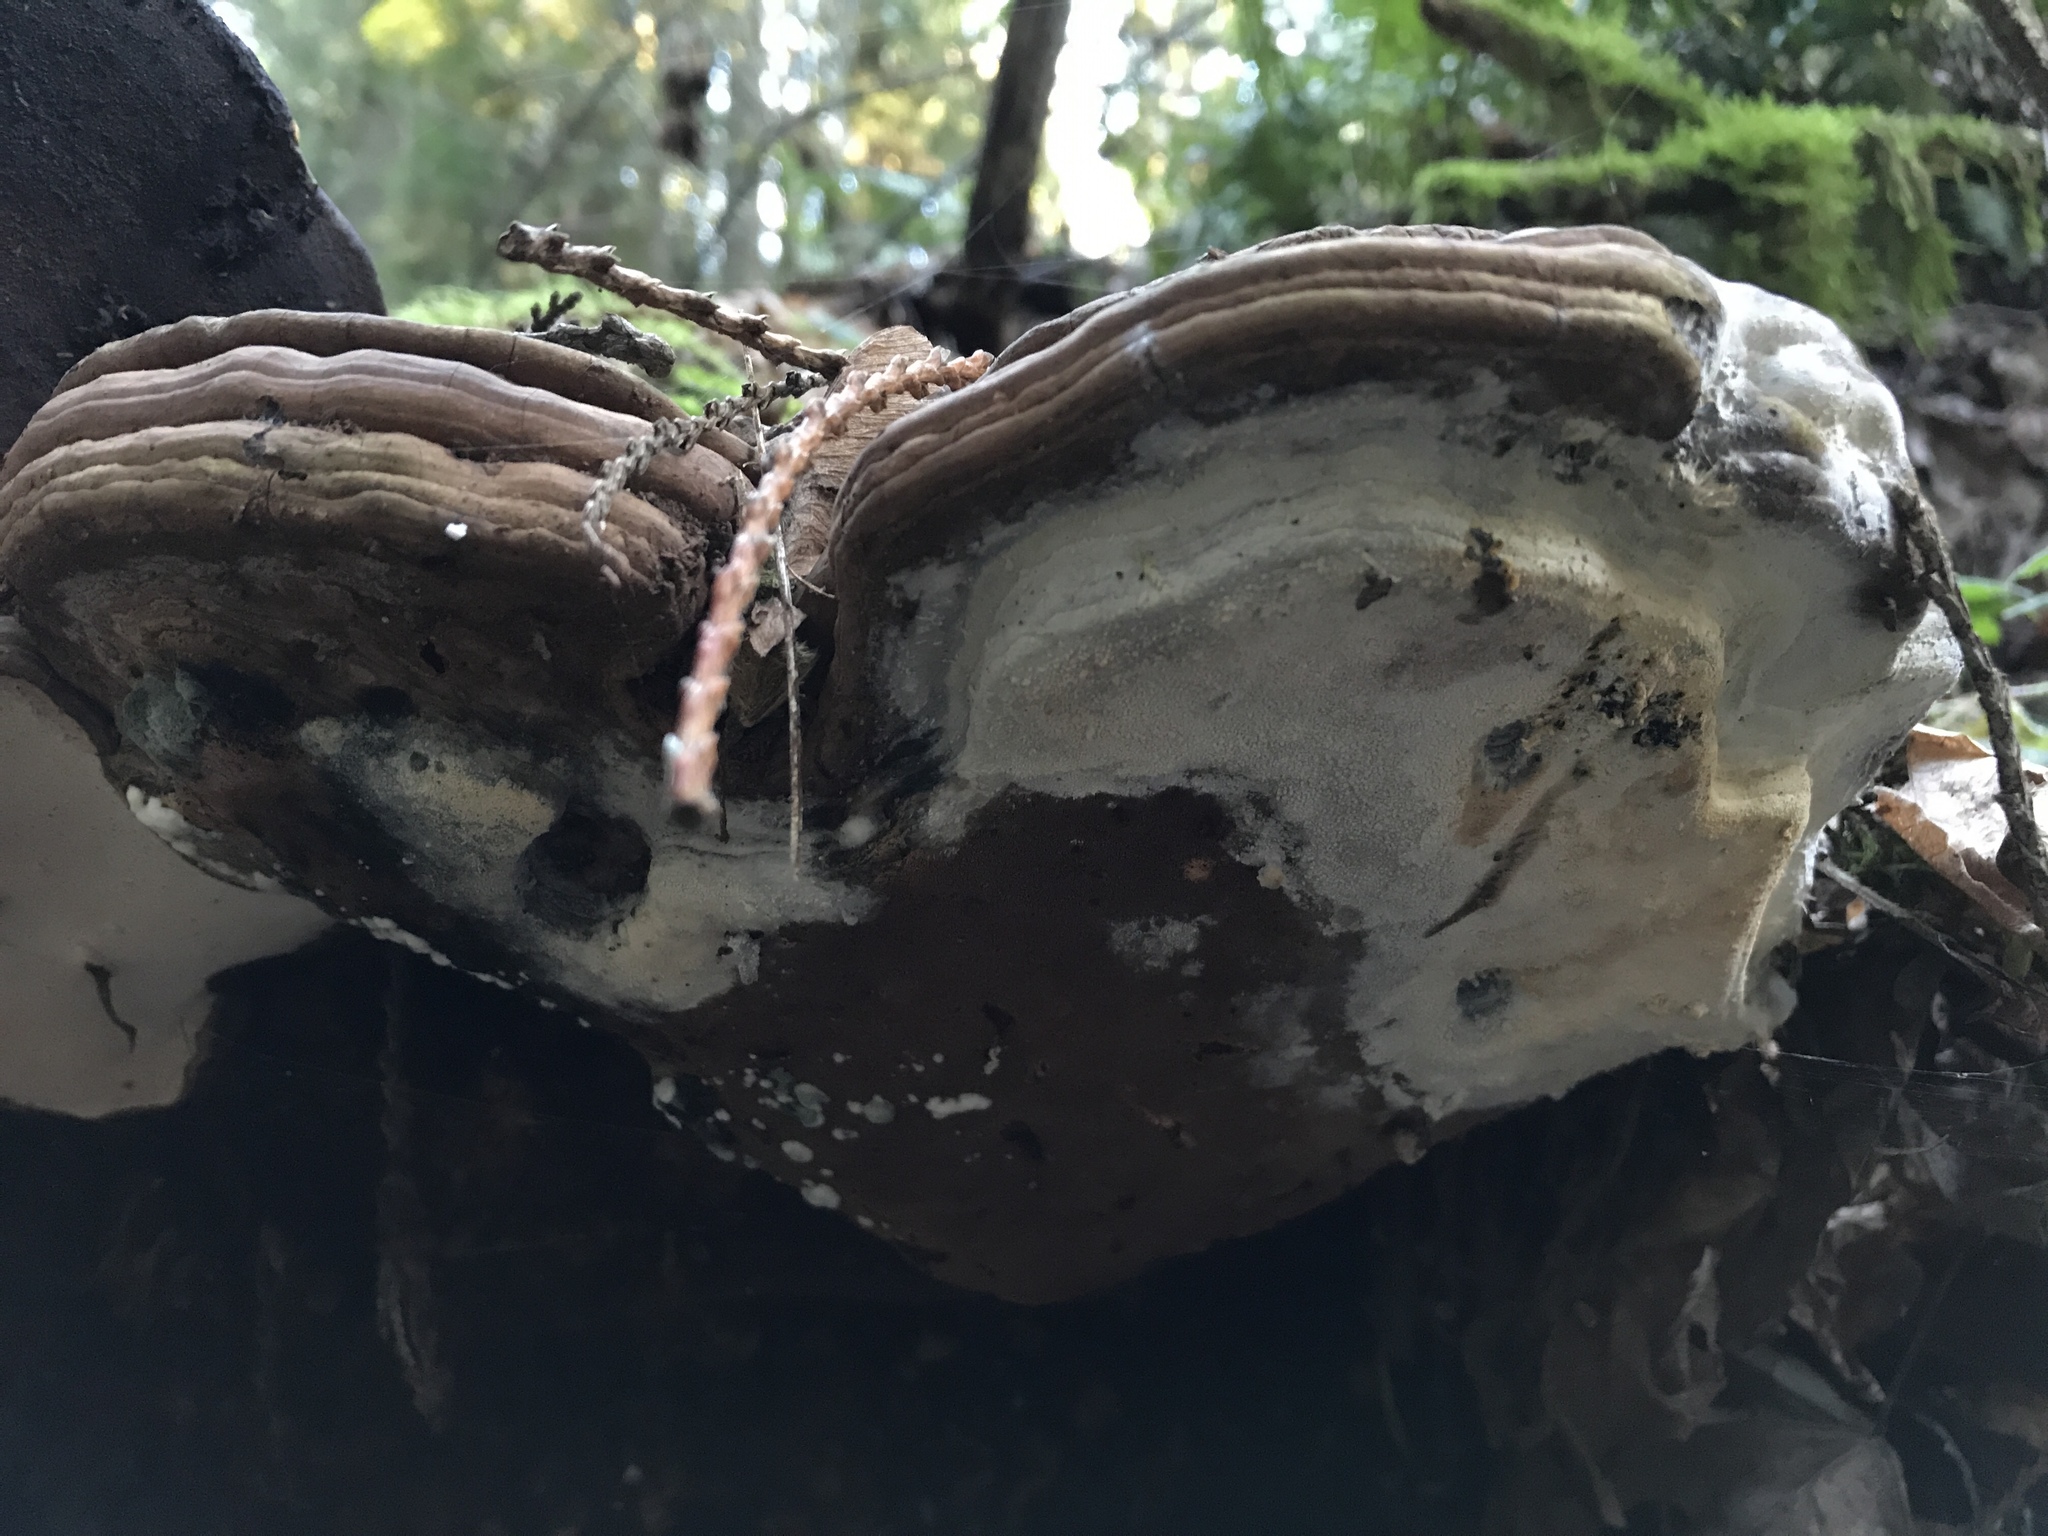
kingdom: Fungi
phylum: Basidiomycota
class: Agaricomycetes
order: Polyporales
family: Polyporaceae
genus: Ganoderma
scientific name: Ganoderma applanatum
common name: Artist's bracket
